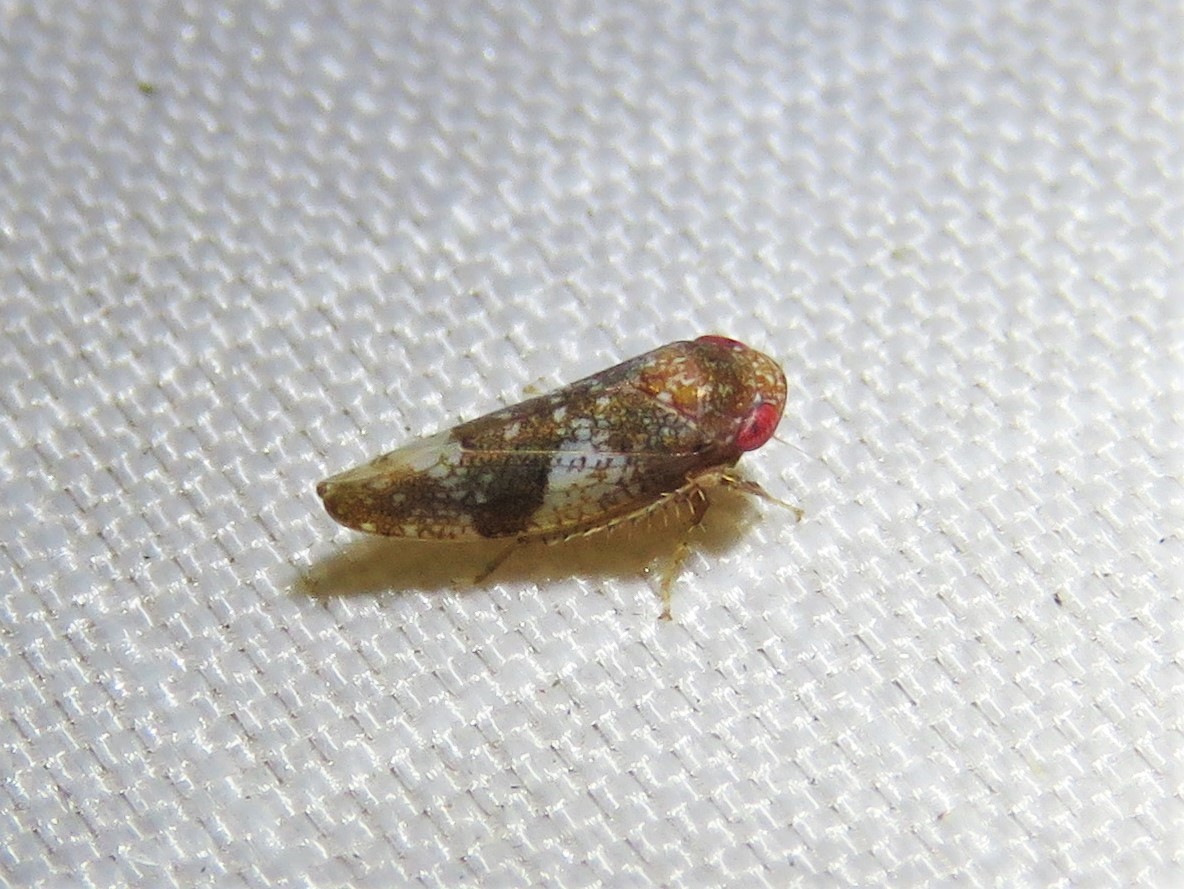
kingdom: Animalia
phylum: Arthropoda
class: Insecta
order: Hemiptera
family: Cicadellidae
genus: Norvellina
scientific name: Norvellina helenae
